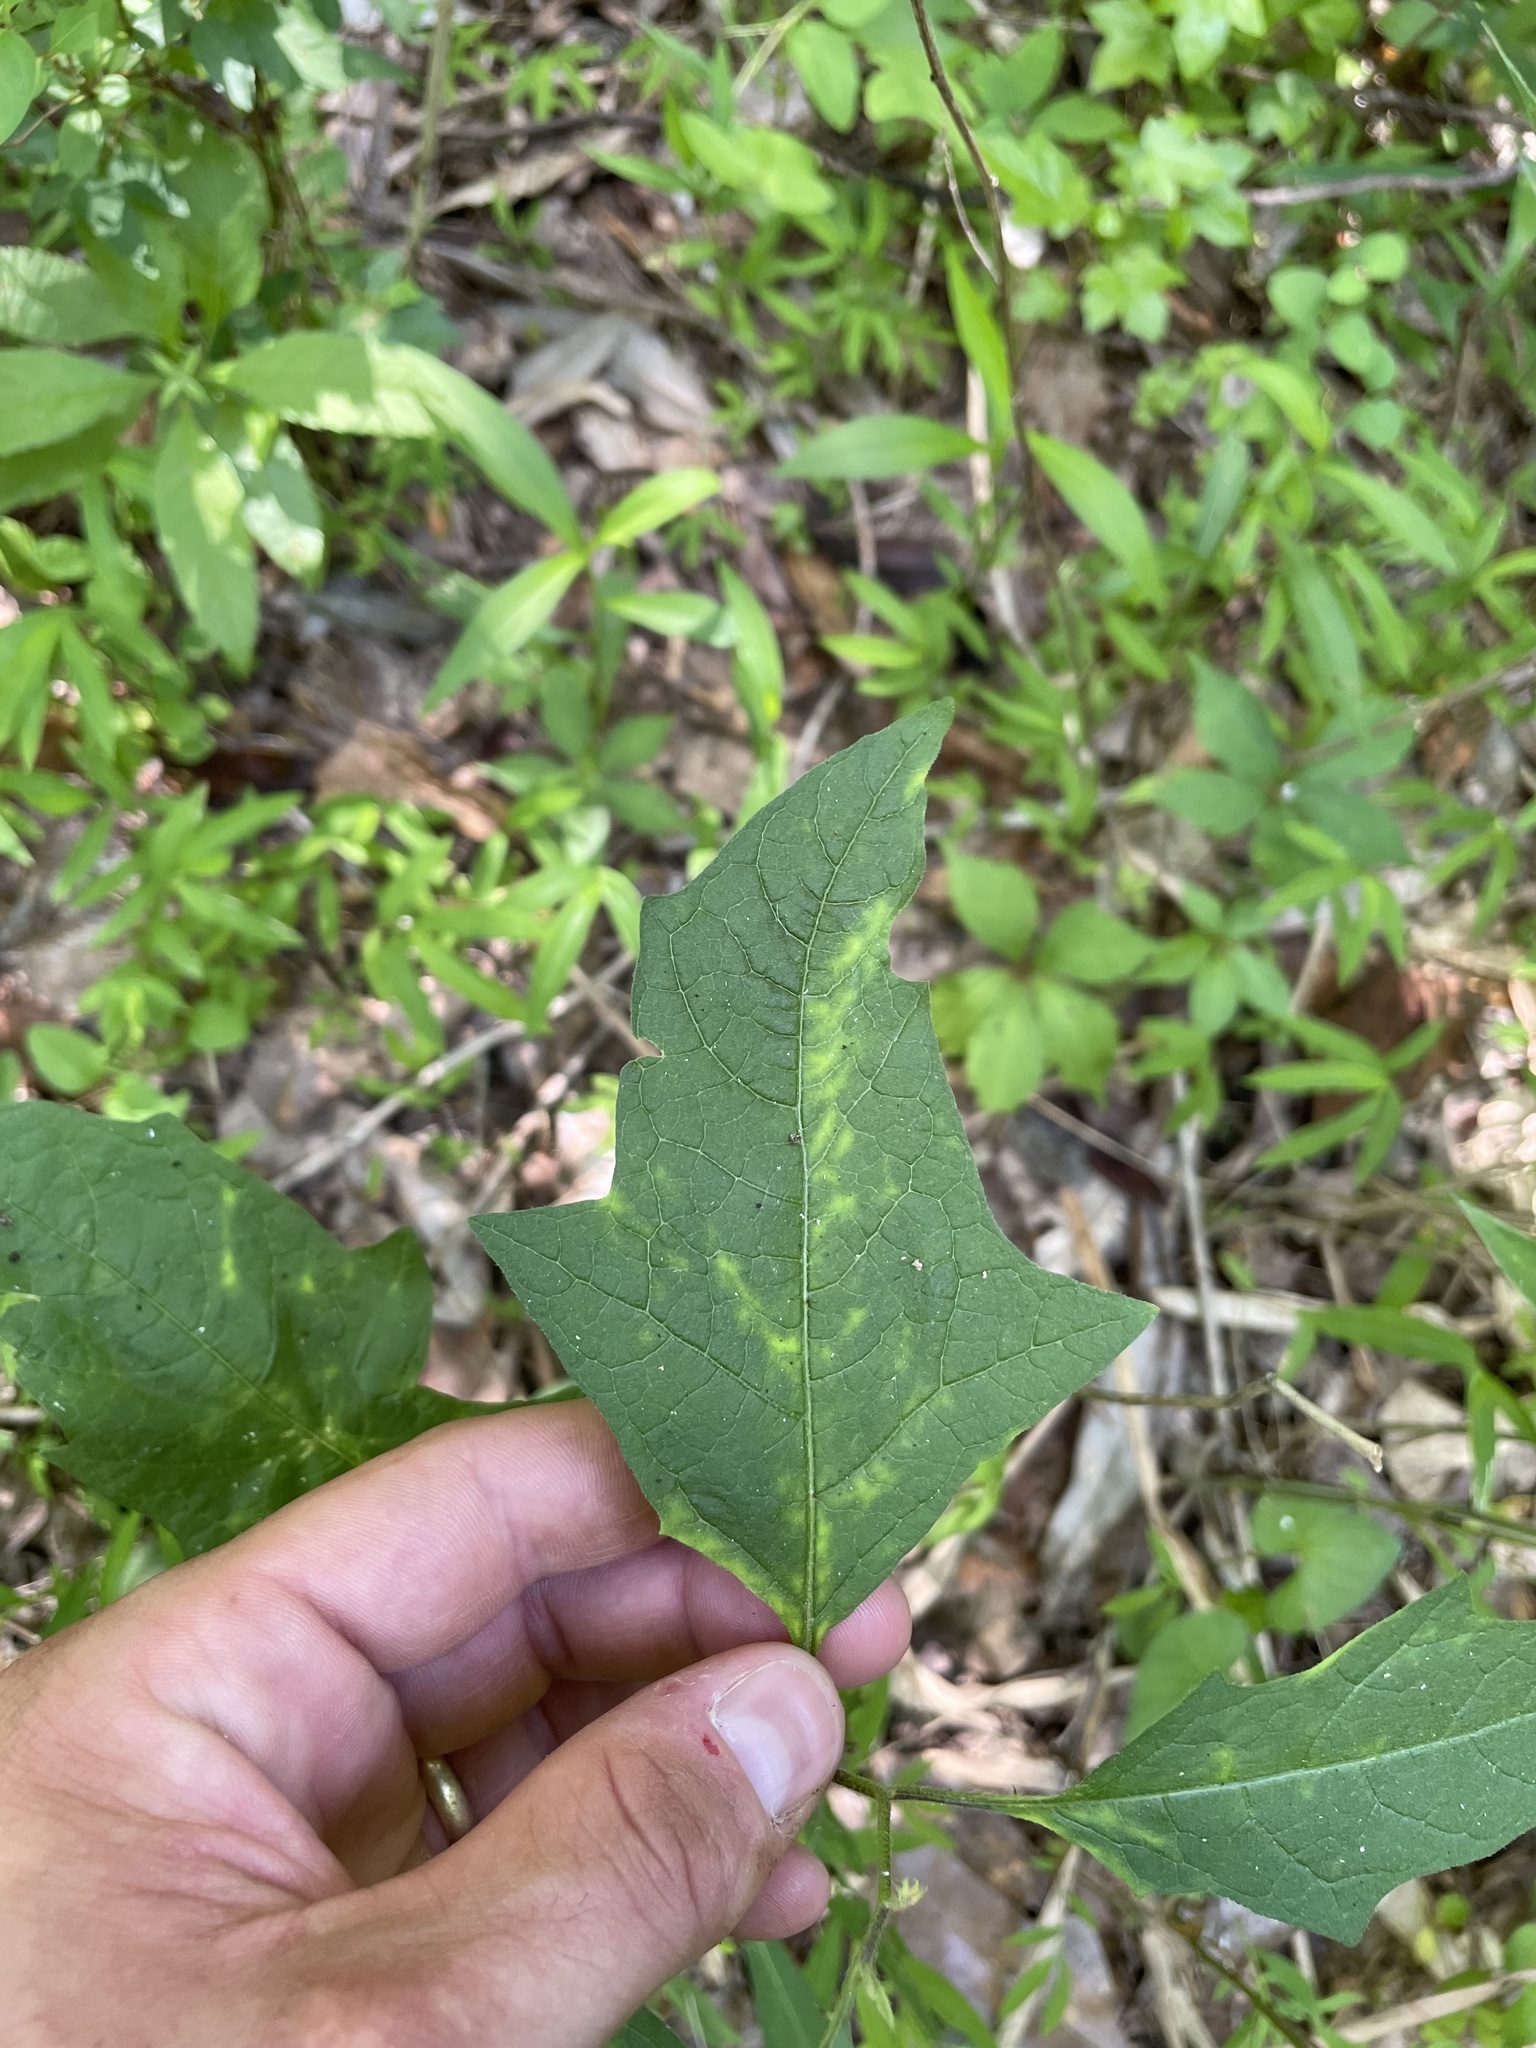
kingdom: Plantae
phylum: Tracheophyta
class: Magnoliopsida
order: Solanales
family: Solanaceae
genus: Solanum
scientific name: Solanum carolinense
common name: Horse-nettle
